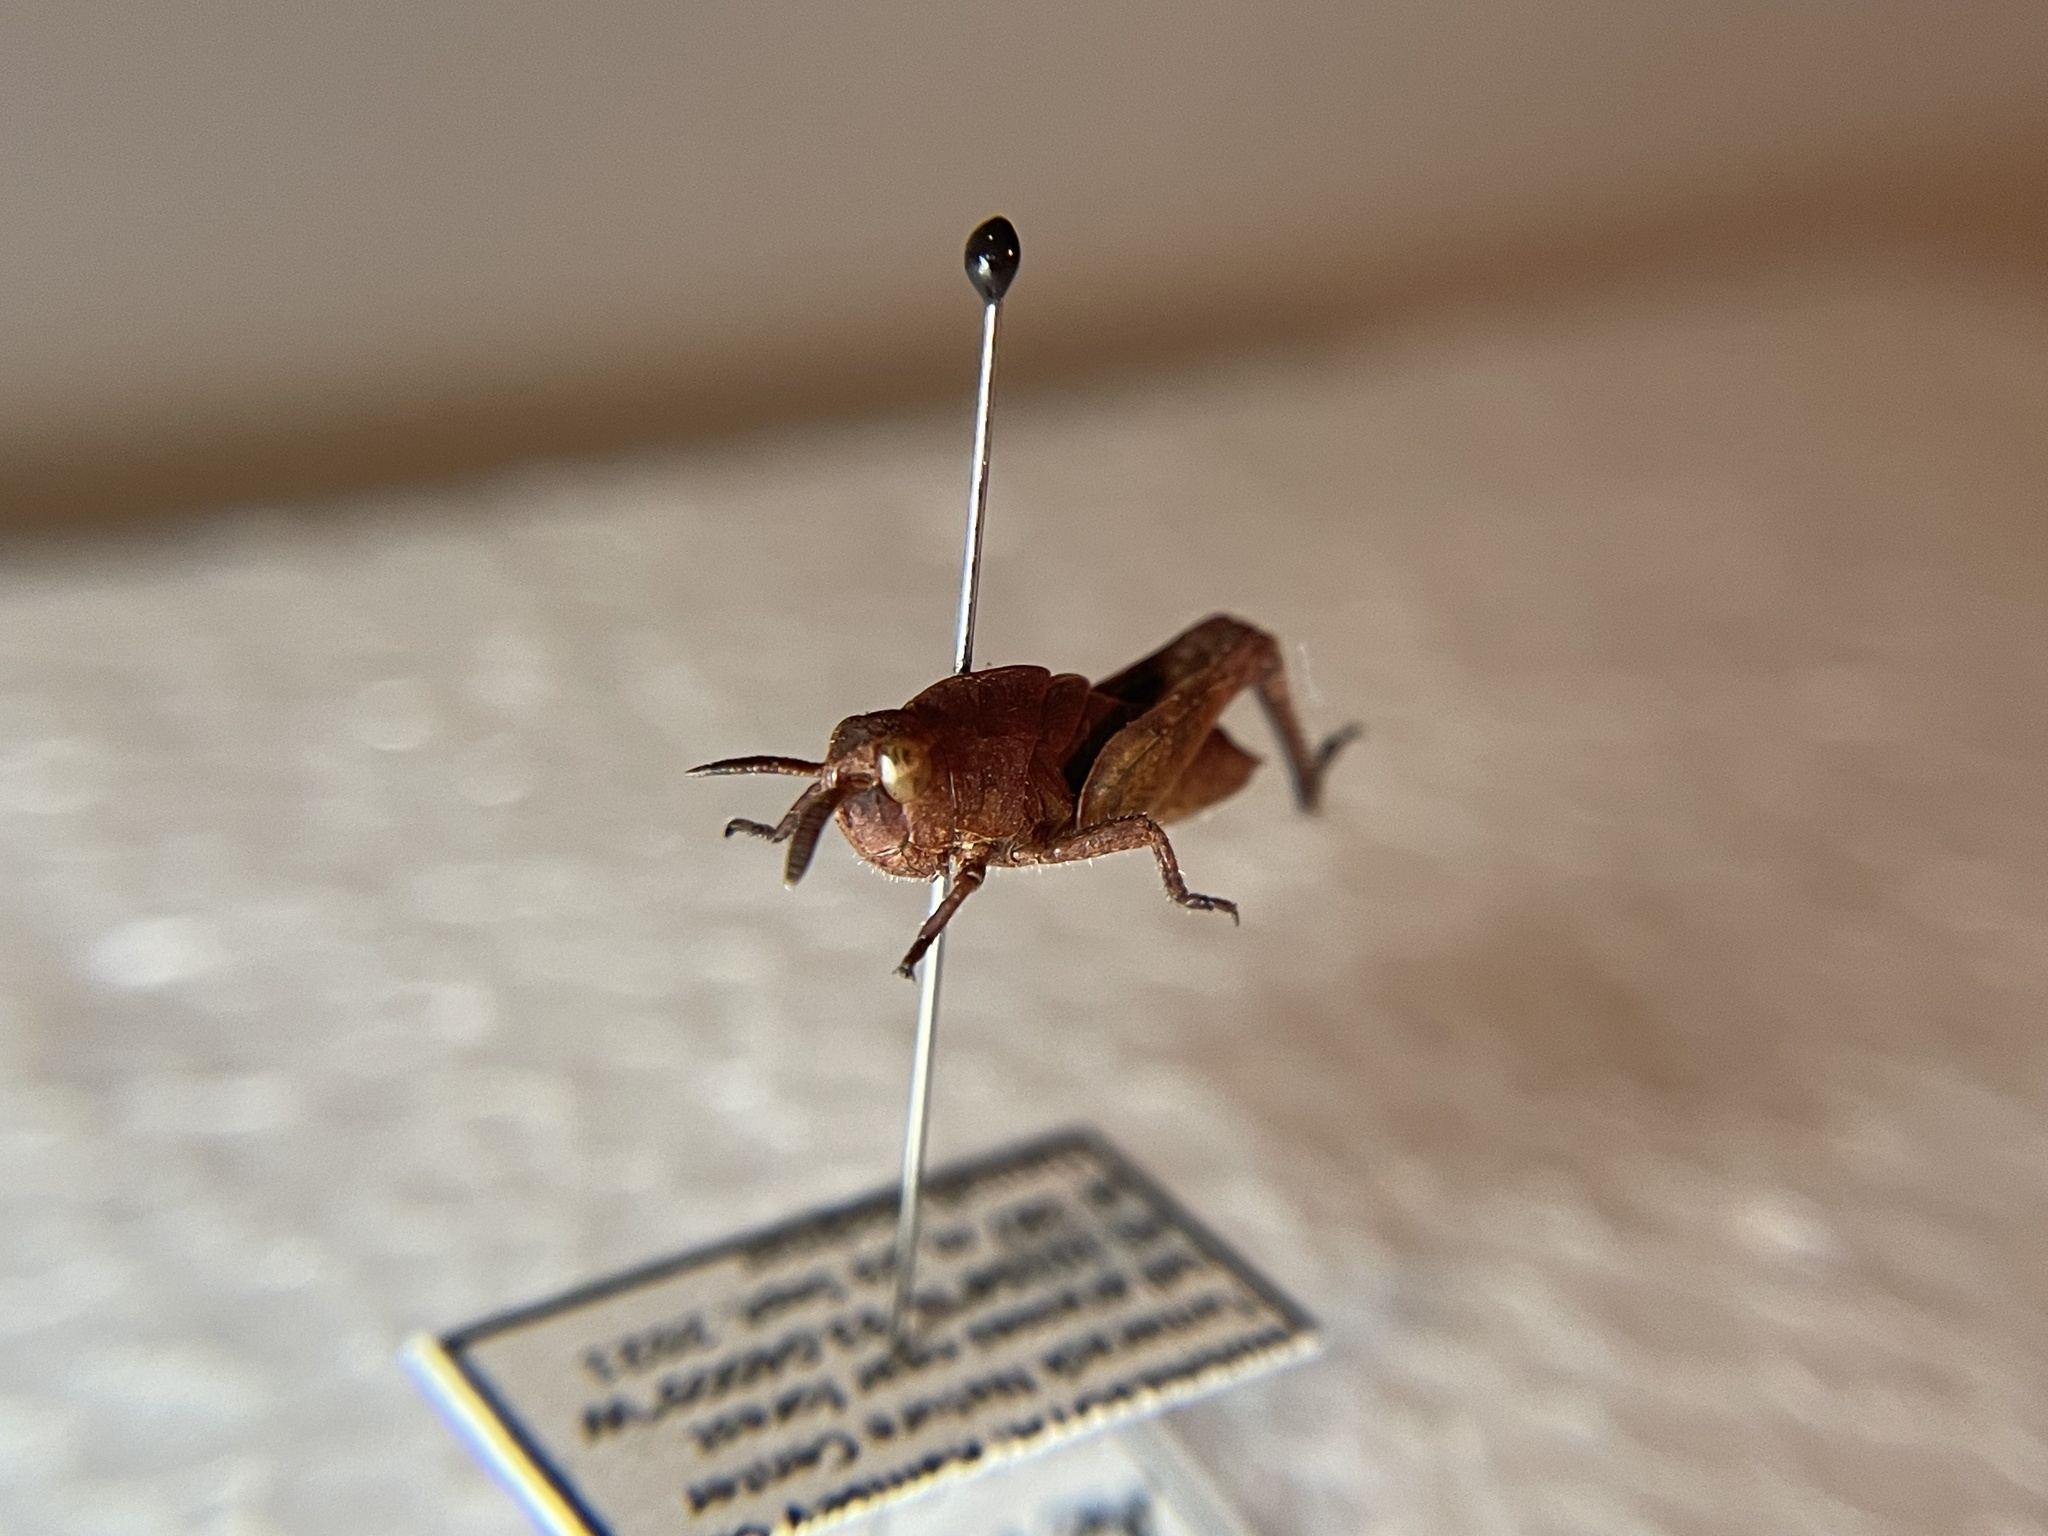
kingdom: Animalia
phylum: Arthropoda
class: Insecta
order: Orthoptera
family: Acrididae
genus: Chortophaga
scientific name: Chortophaga viridifasciata
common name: Green-striped grasshopper
